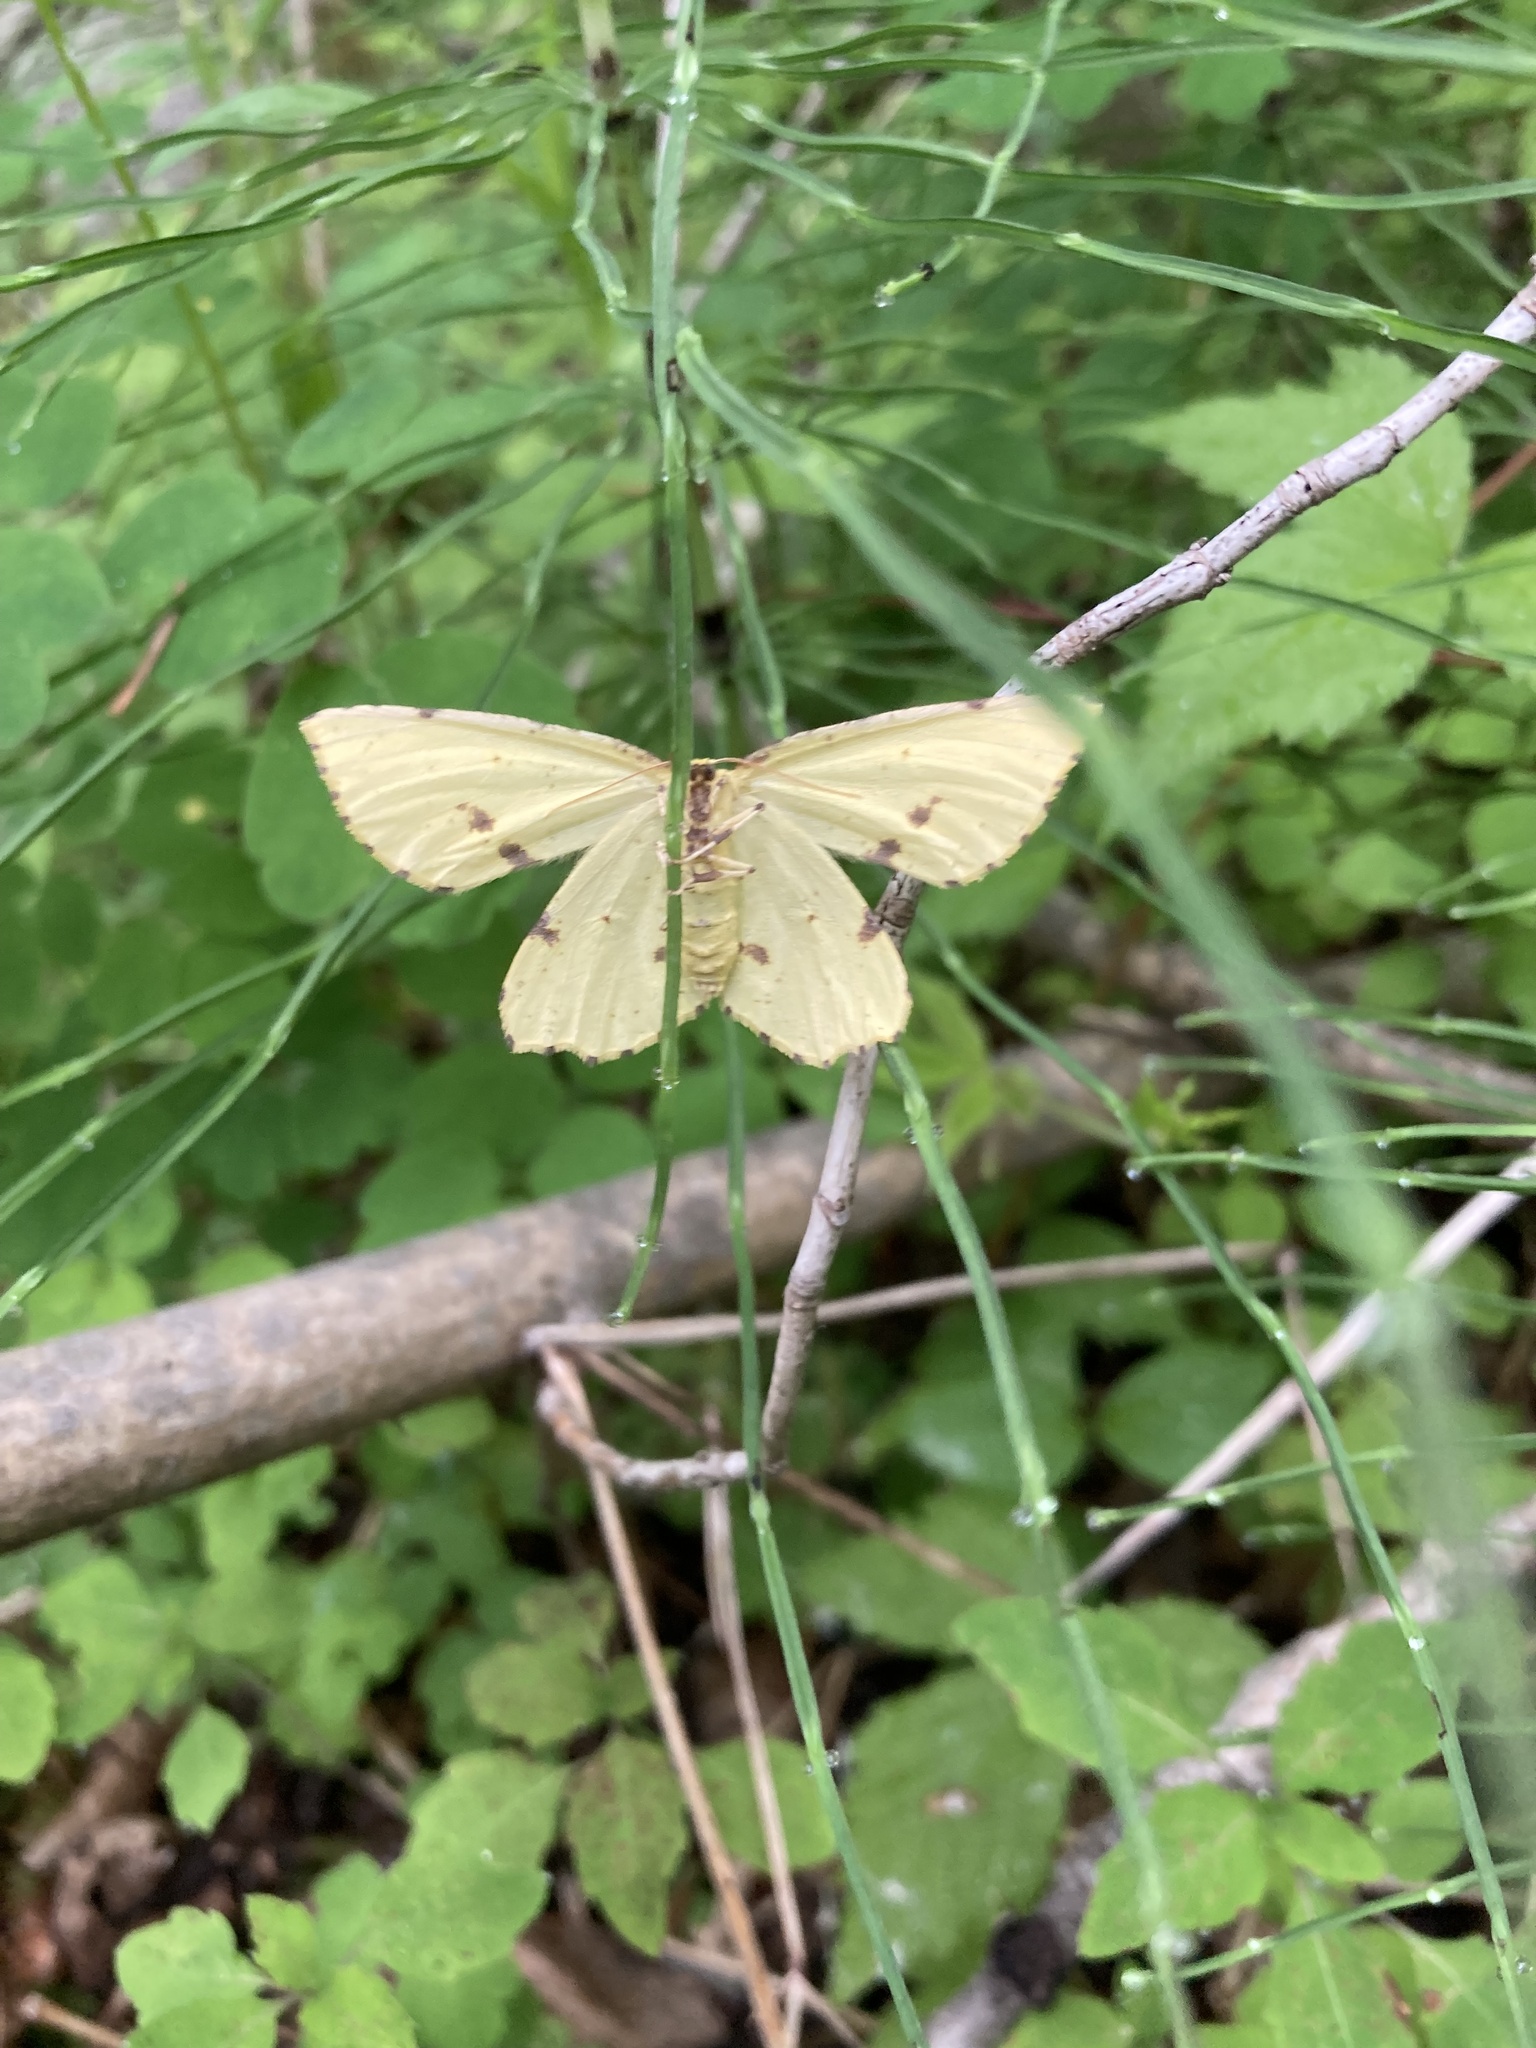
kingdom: Animalia
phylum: Arthropoda
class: Insecta
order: Lepidoptera
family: Geometridae
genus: Xanthotype
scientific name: Xanthotype
